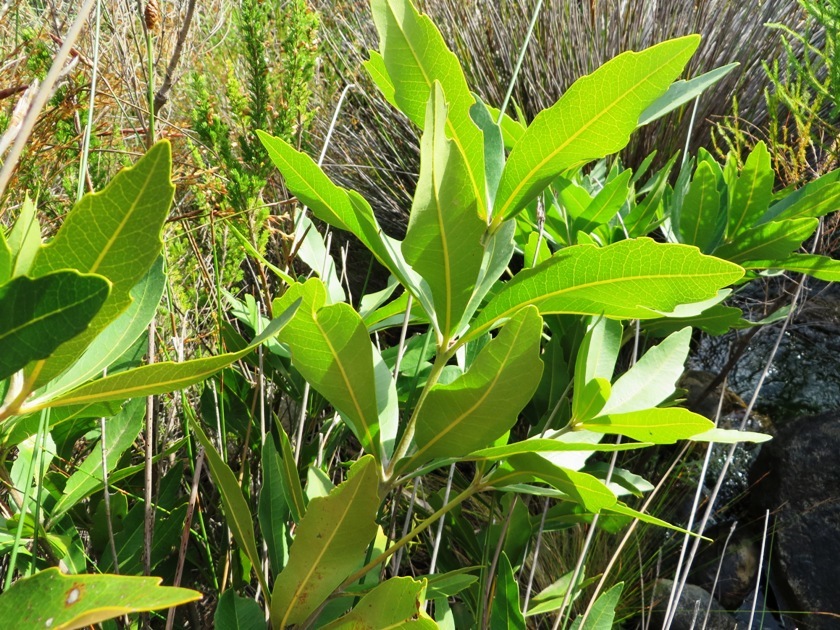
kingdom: Plantae
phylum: Tracheophyta
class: Magnoliopsida
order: Proteales
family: Proteaceae
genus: Brabejum
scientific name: Brabejum stellatifolium
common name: Wild almond
